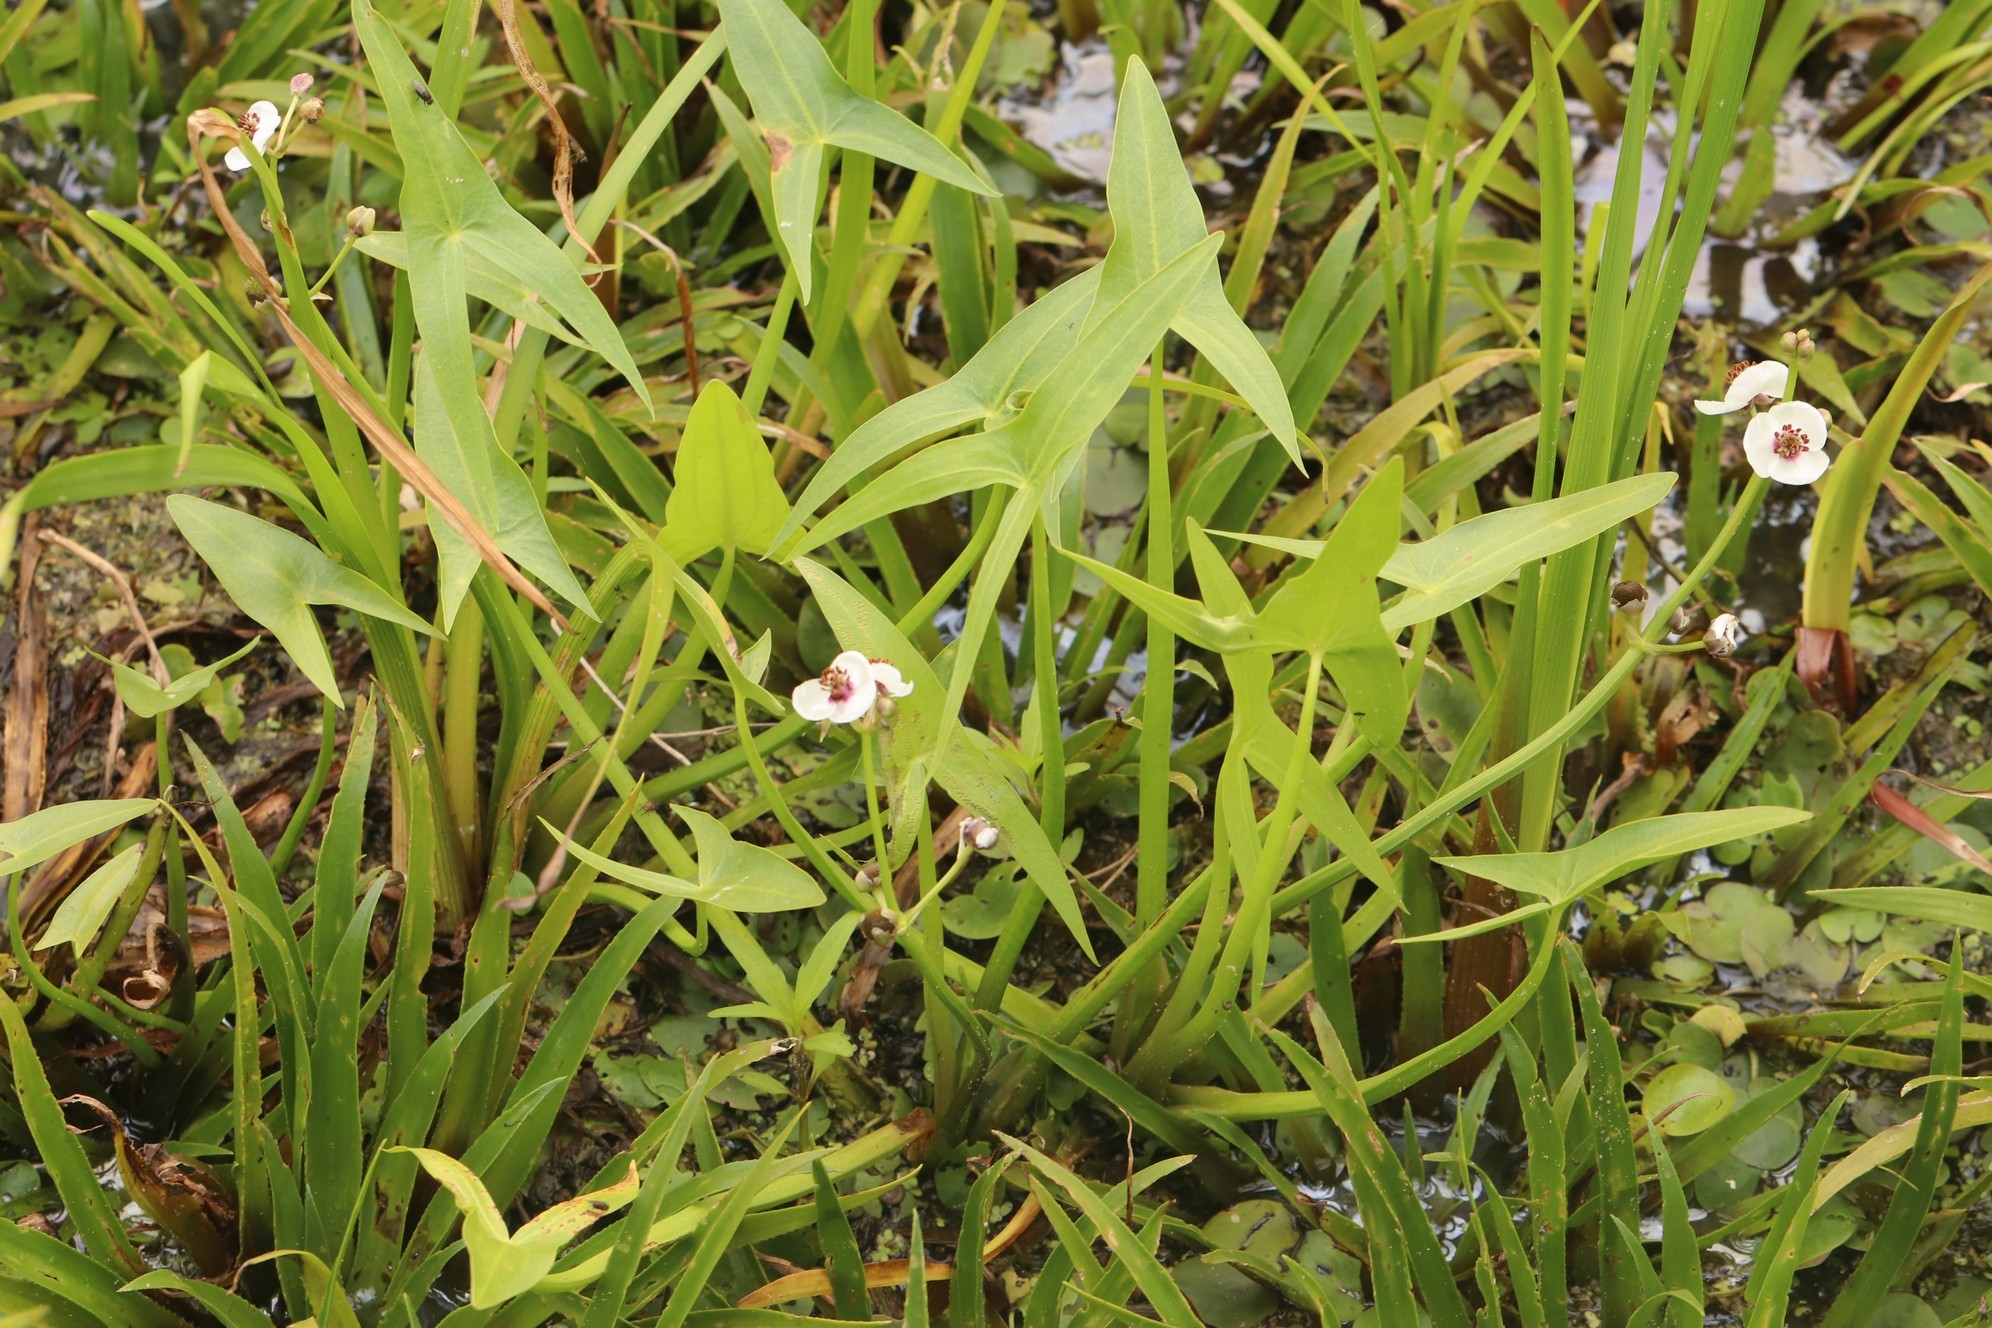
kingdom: Plantae
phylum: Tracheophyta
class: Liliopsida
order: Alismatales
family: Alismataceae
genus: Sagittaria
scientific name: Sagittaria sagittifolia
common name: Arrowhead
